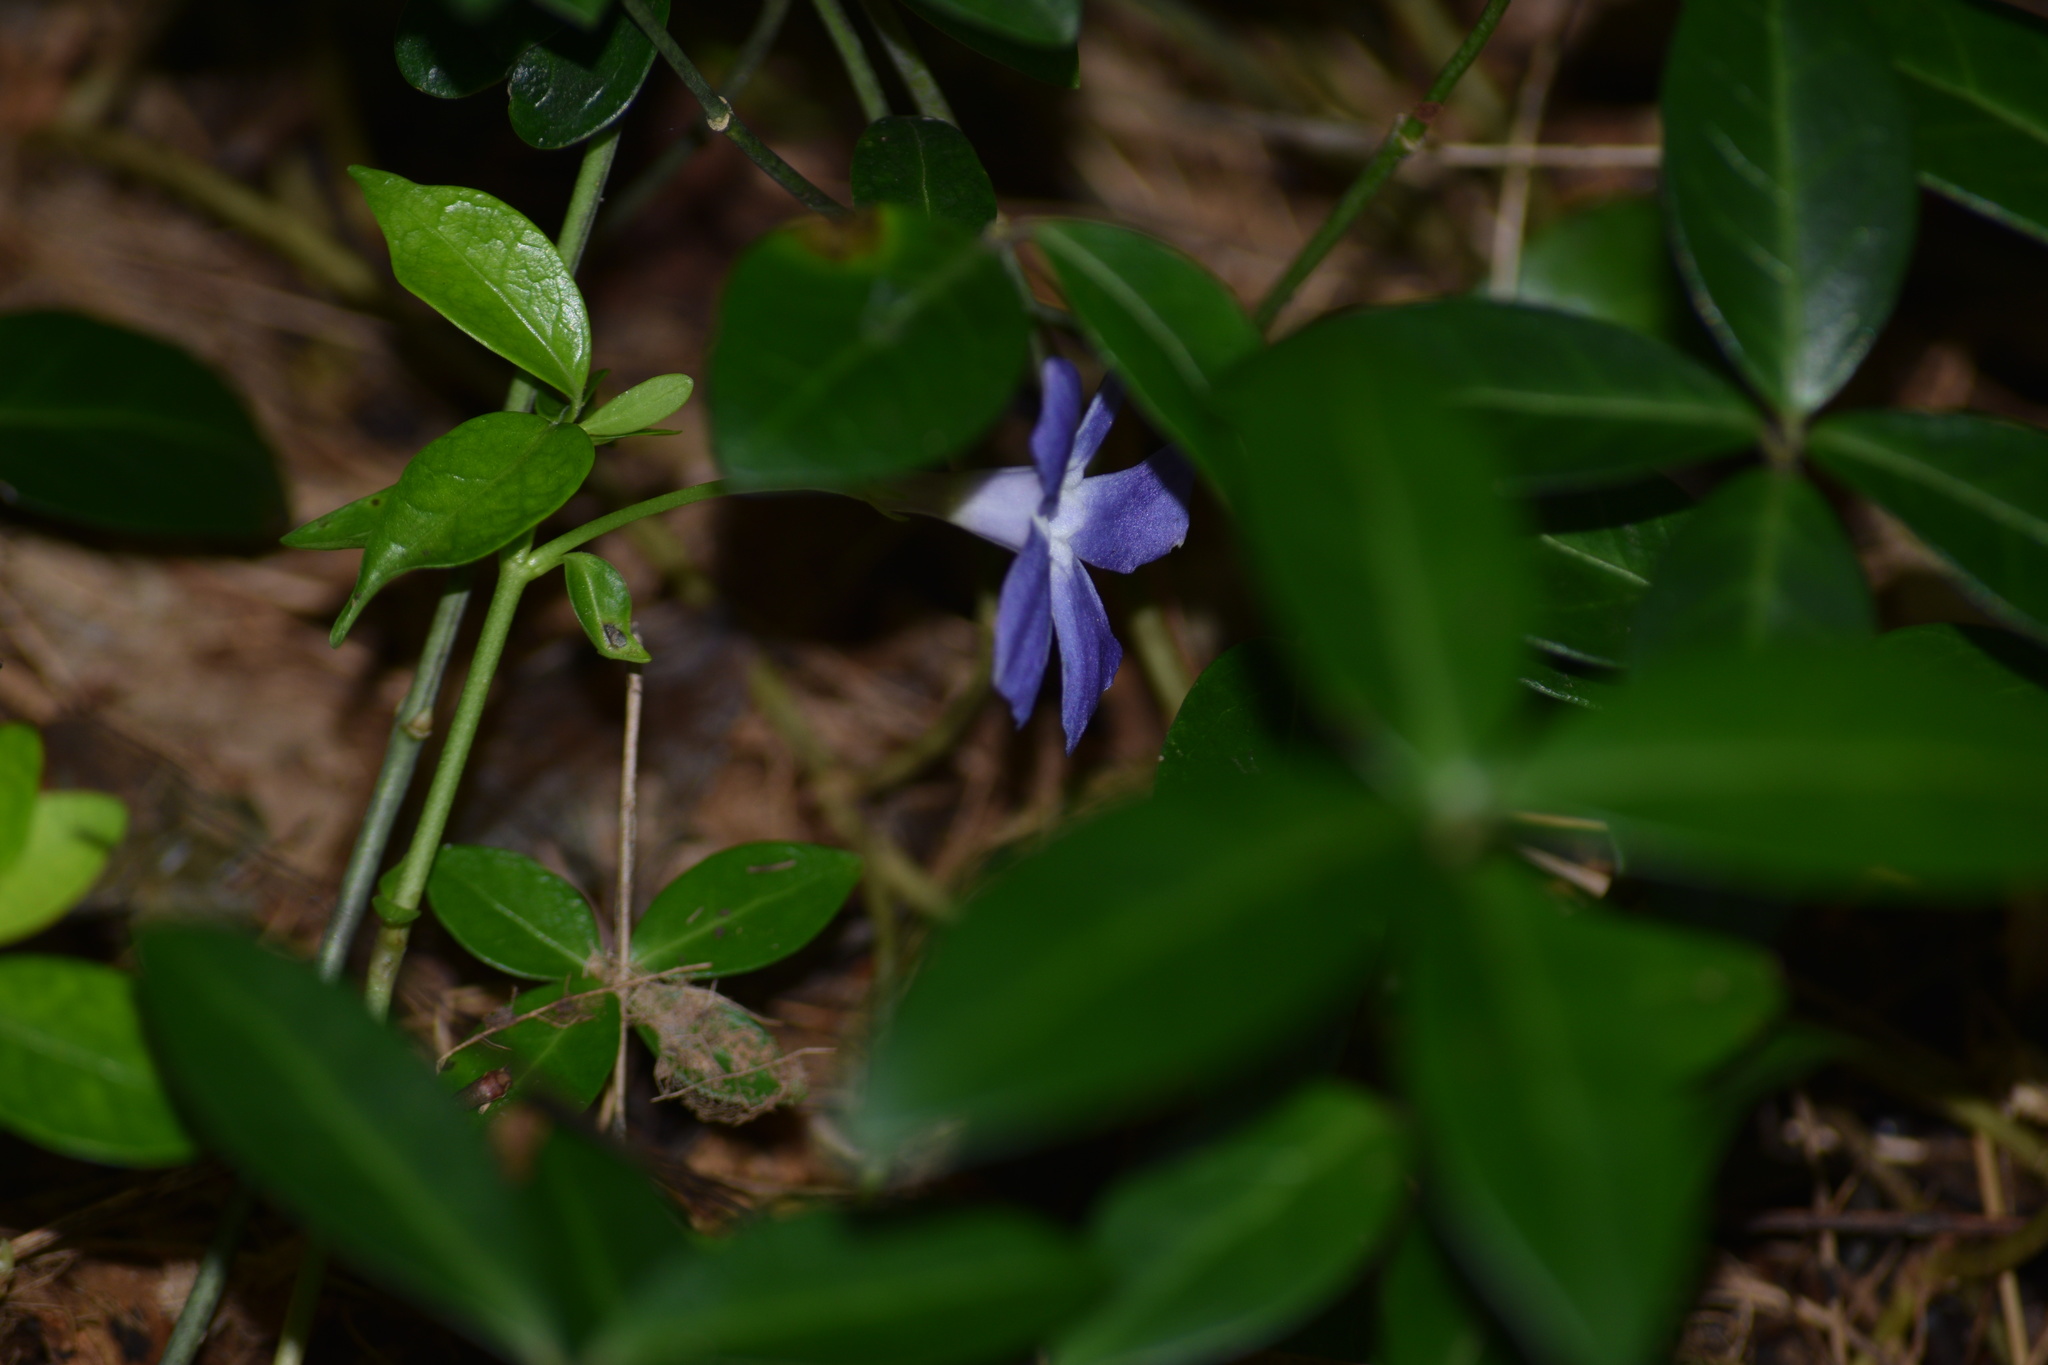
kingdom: Plantae
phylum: Tracheophyta
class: Magnoliopsida
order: Gentianales
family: Apocynaceae
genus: Vinca
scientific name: Vinca minor
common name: Lesser periwinkle
